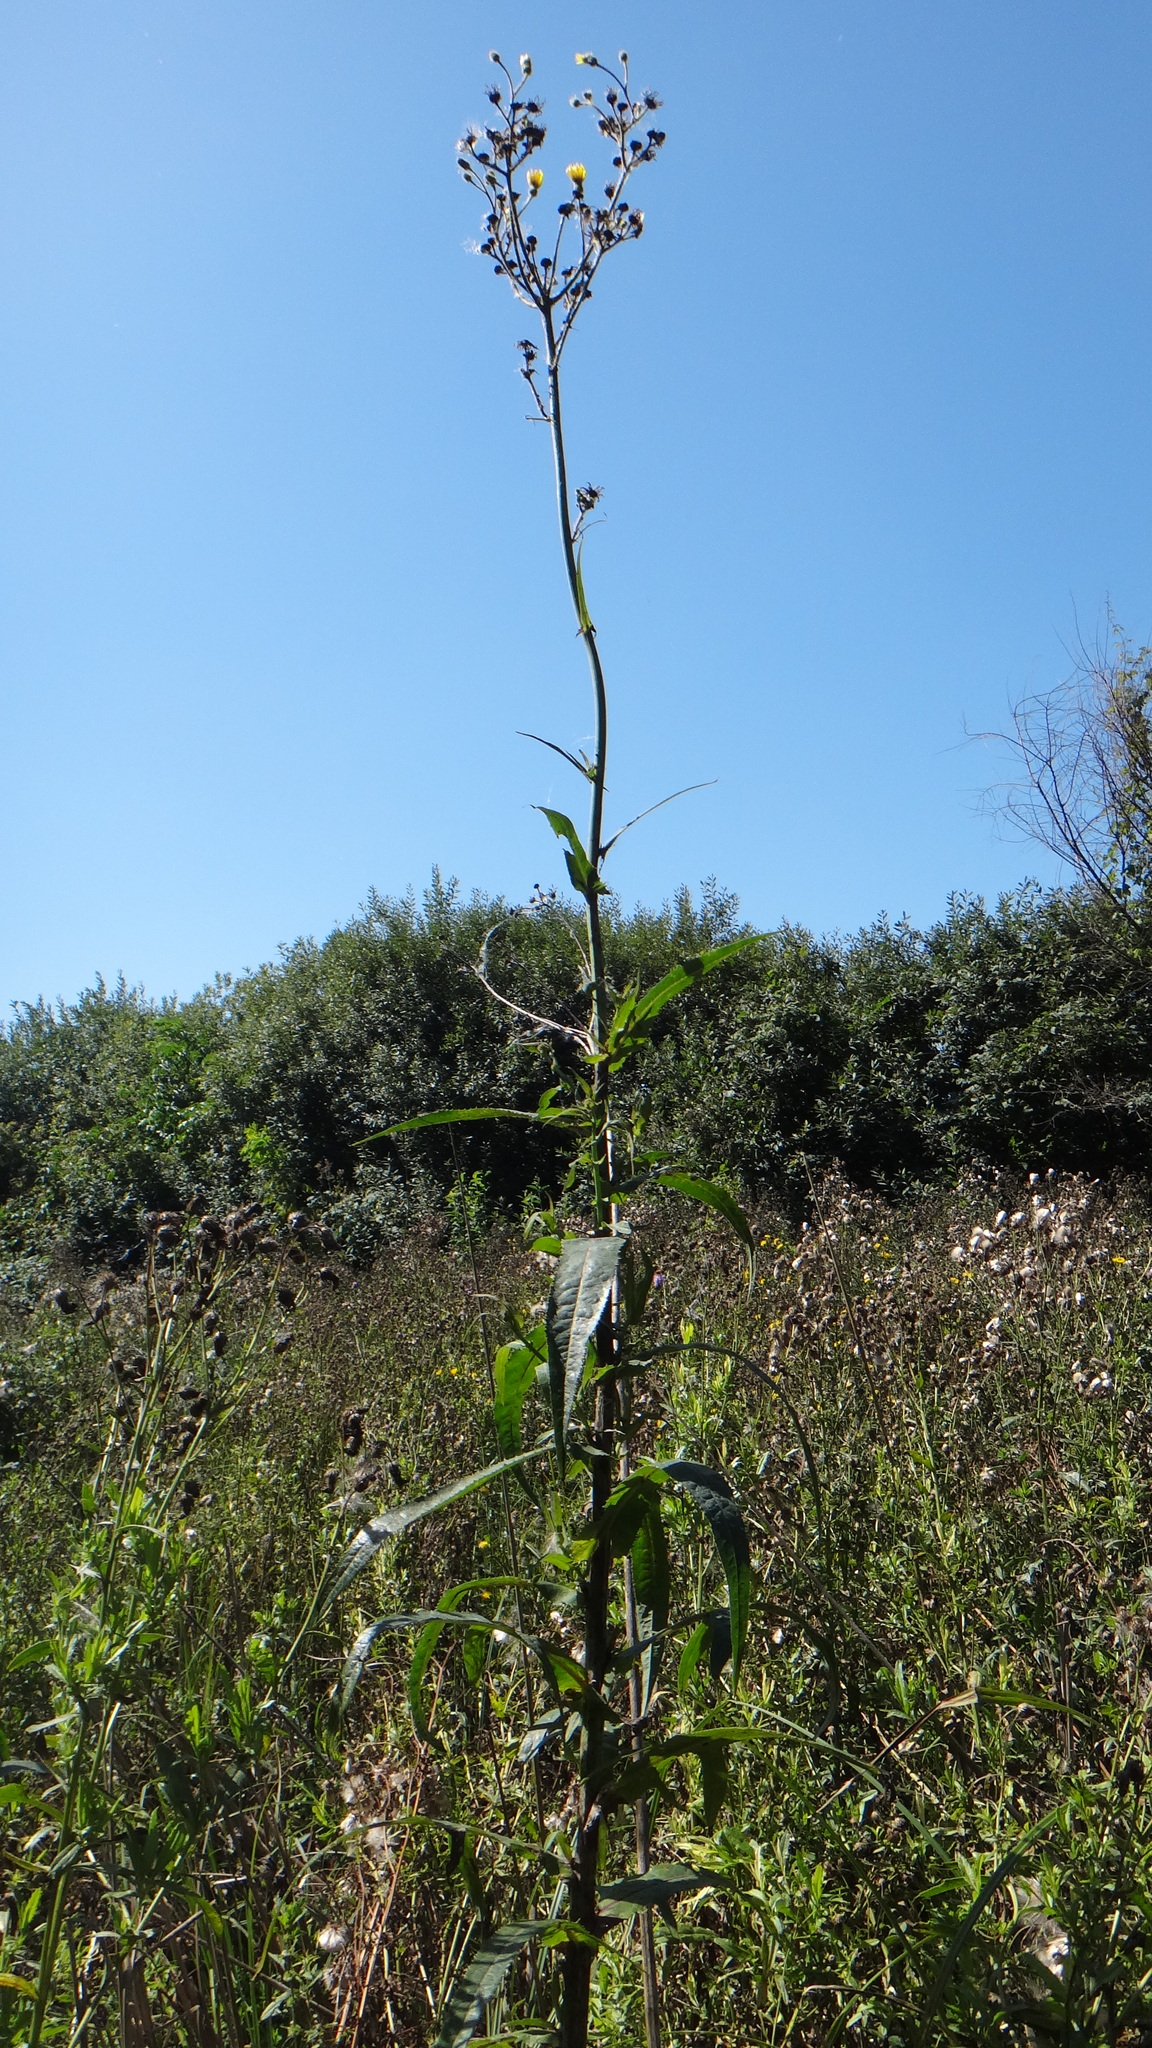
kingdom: Plantae
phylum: Tracheophyta
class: Magnoliopsida
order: Asterales
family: Asteraceae
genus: Sonchus
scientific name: Sonchus palustris
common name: Marsh sow-thistle
